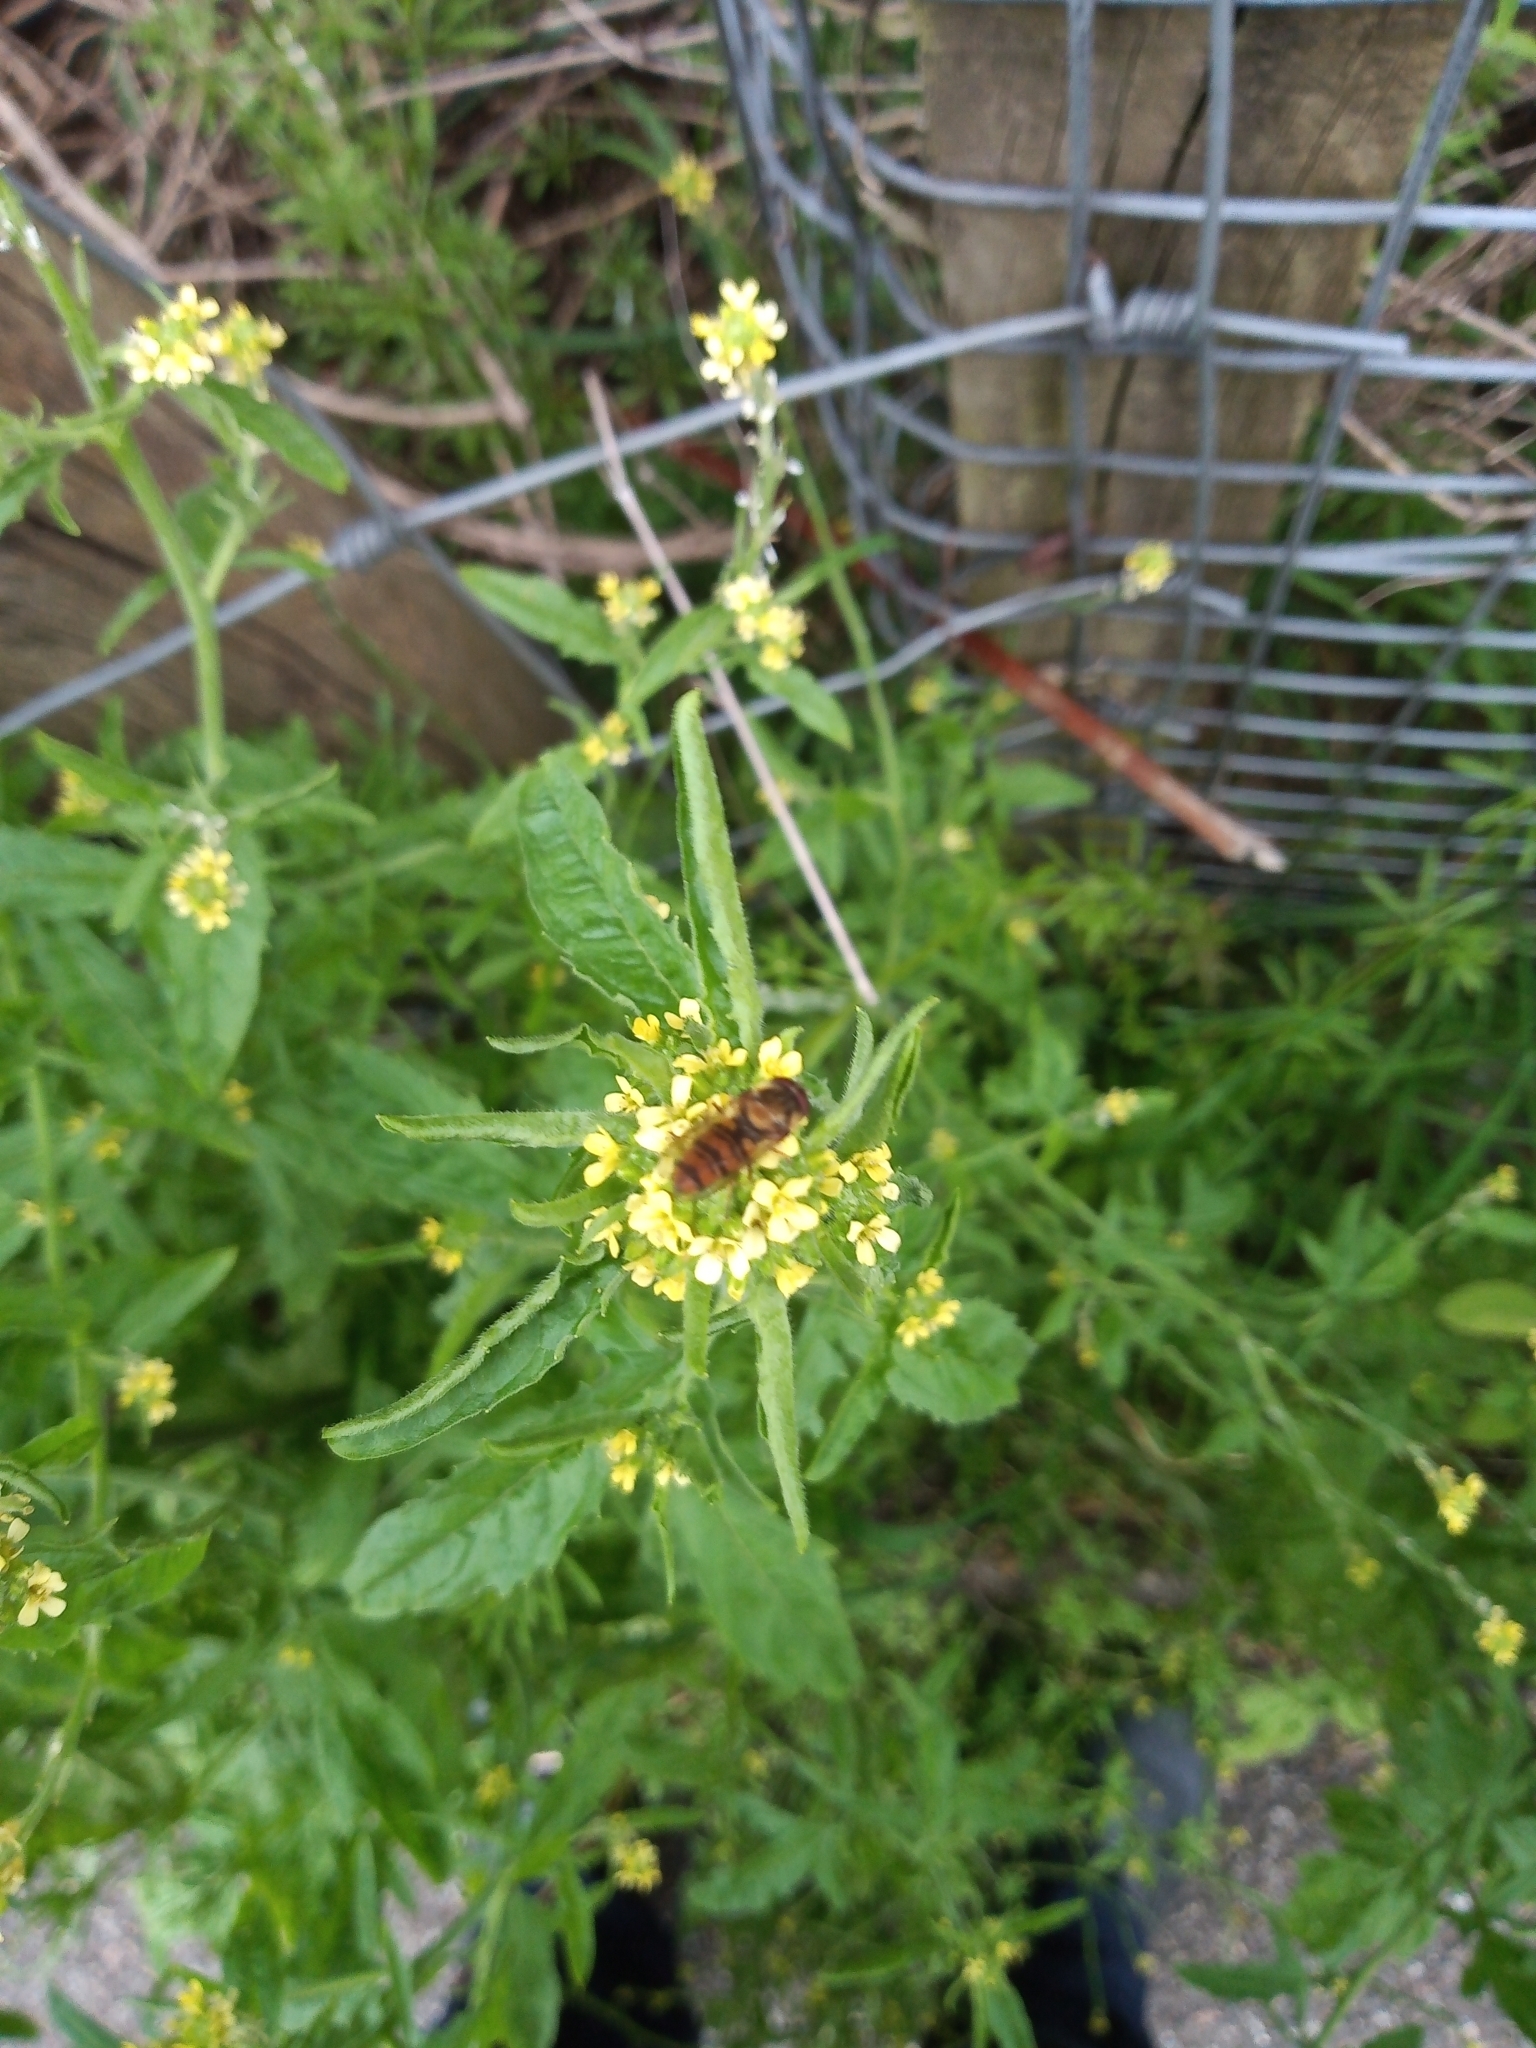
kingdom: Animalia
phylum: Arthropoda
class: Insecta
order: Diptera
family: Syrphidae
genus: Episyrphus
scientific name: Episyrphus balteatus
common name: Marmalade hoverfly
